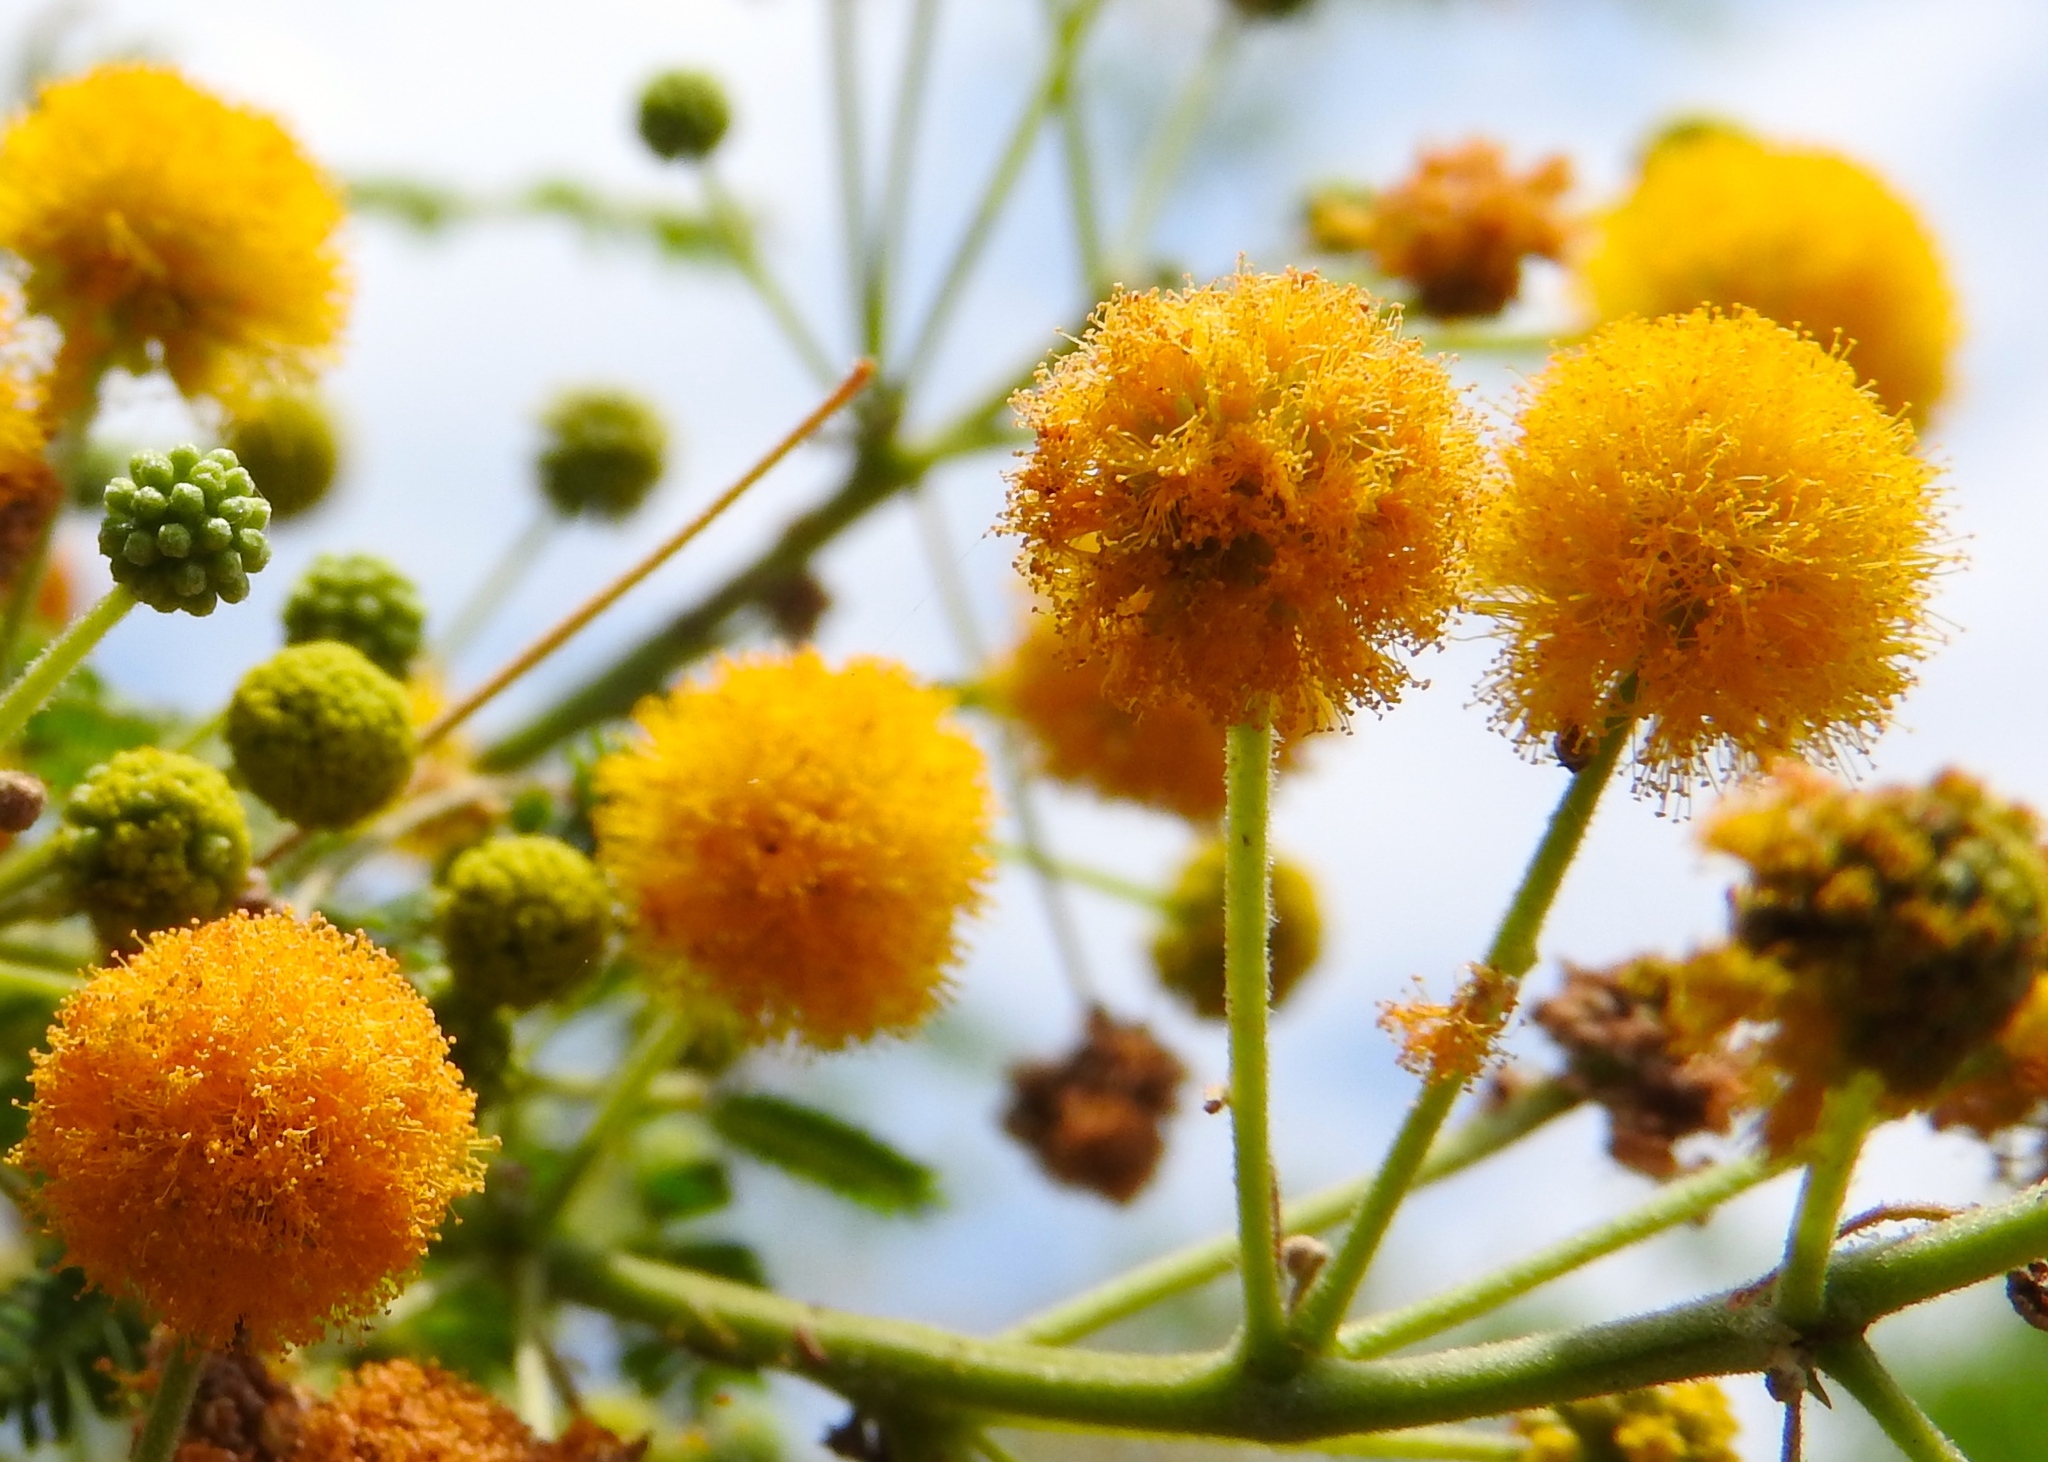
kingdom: Plantae
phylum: Tracheophyta
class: Magnoliopsida
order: Fabales
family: Fabaceae
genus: Vachellia
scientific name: Vachellia farnesiana
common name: Sweet acacia
